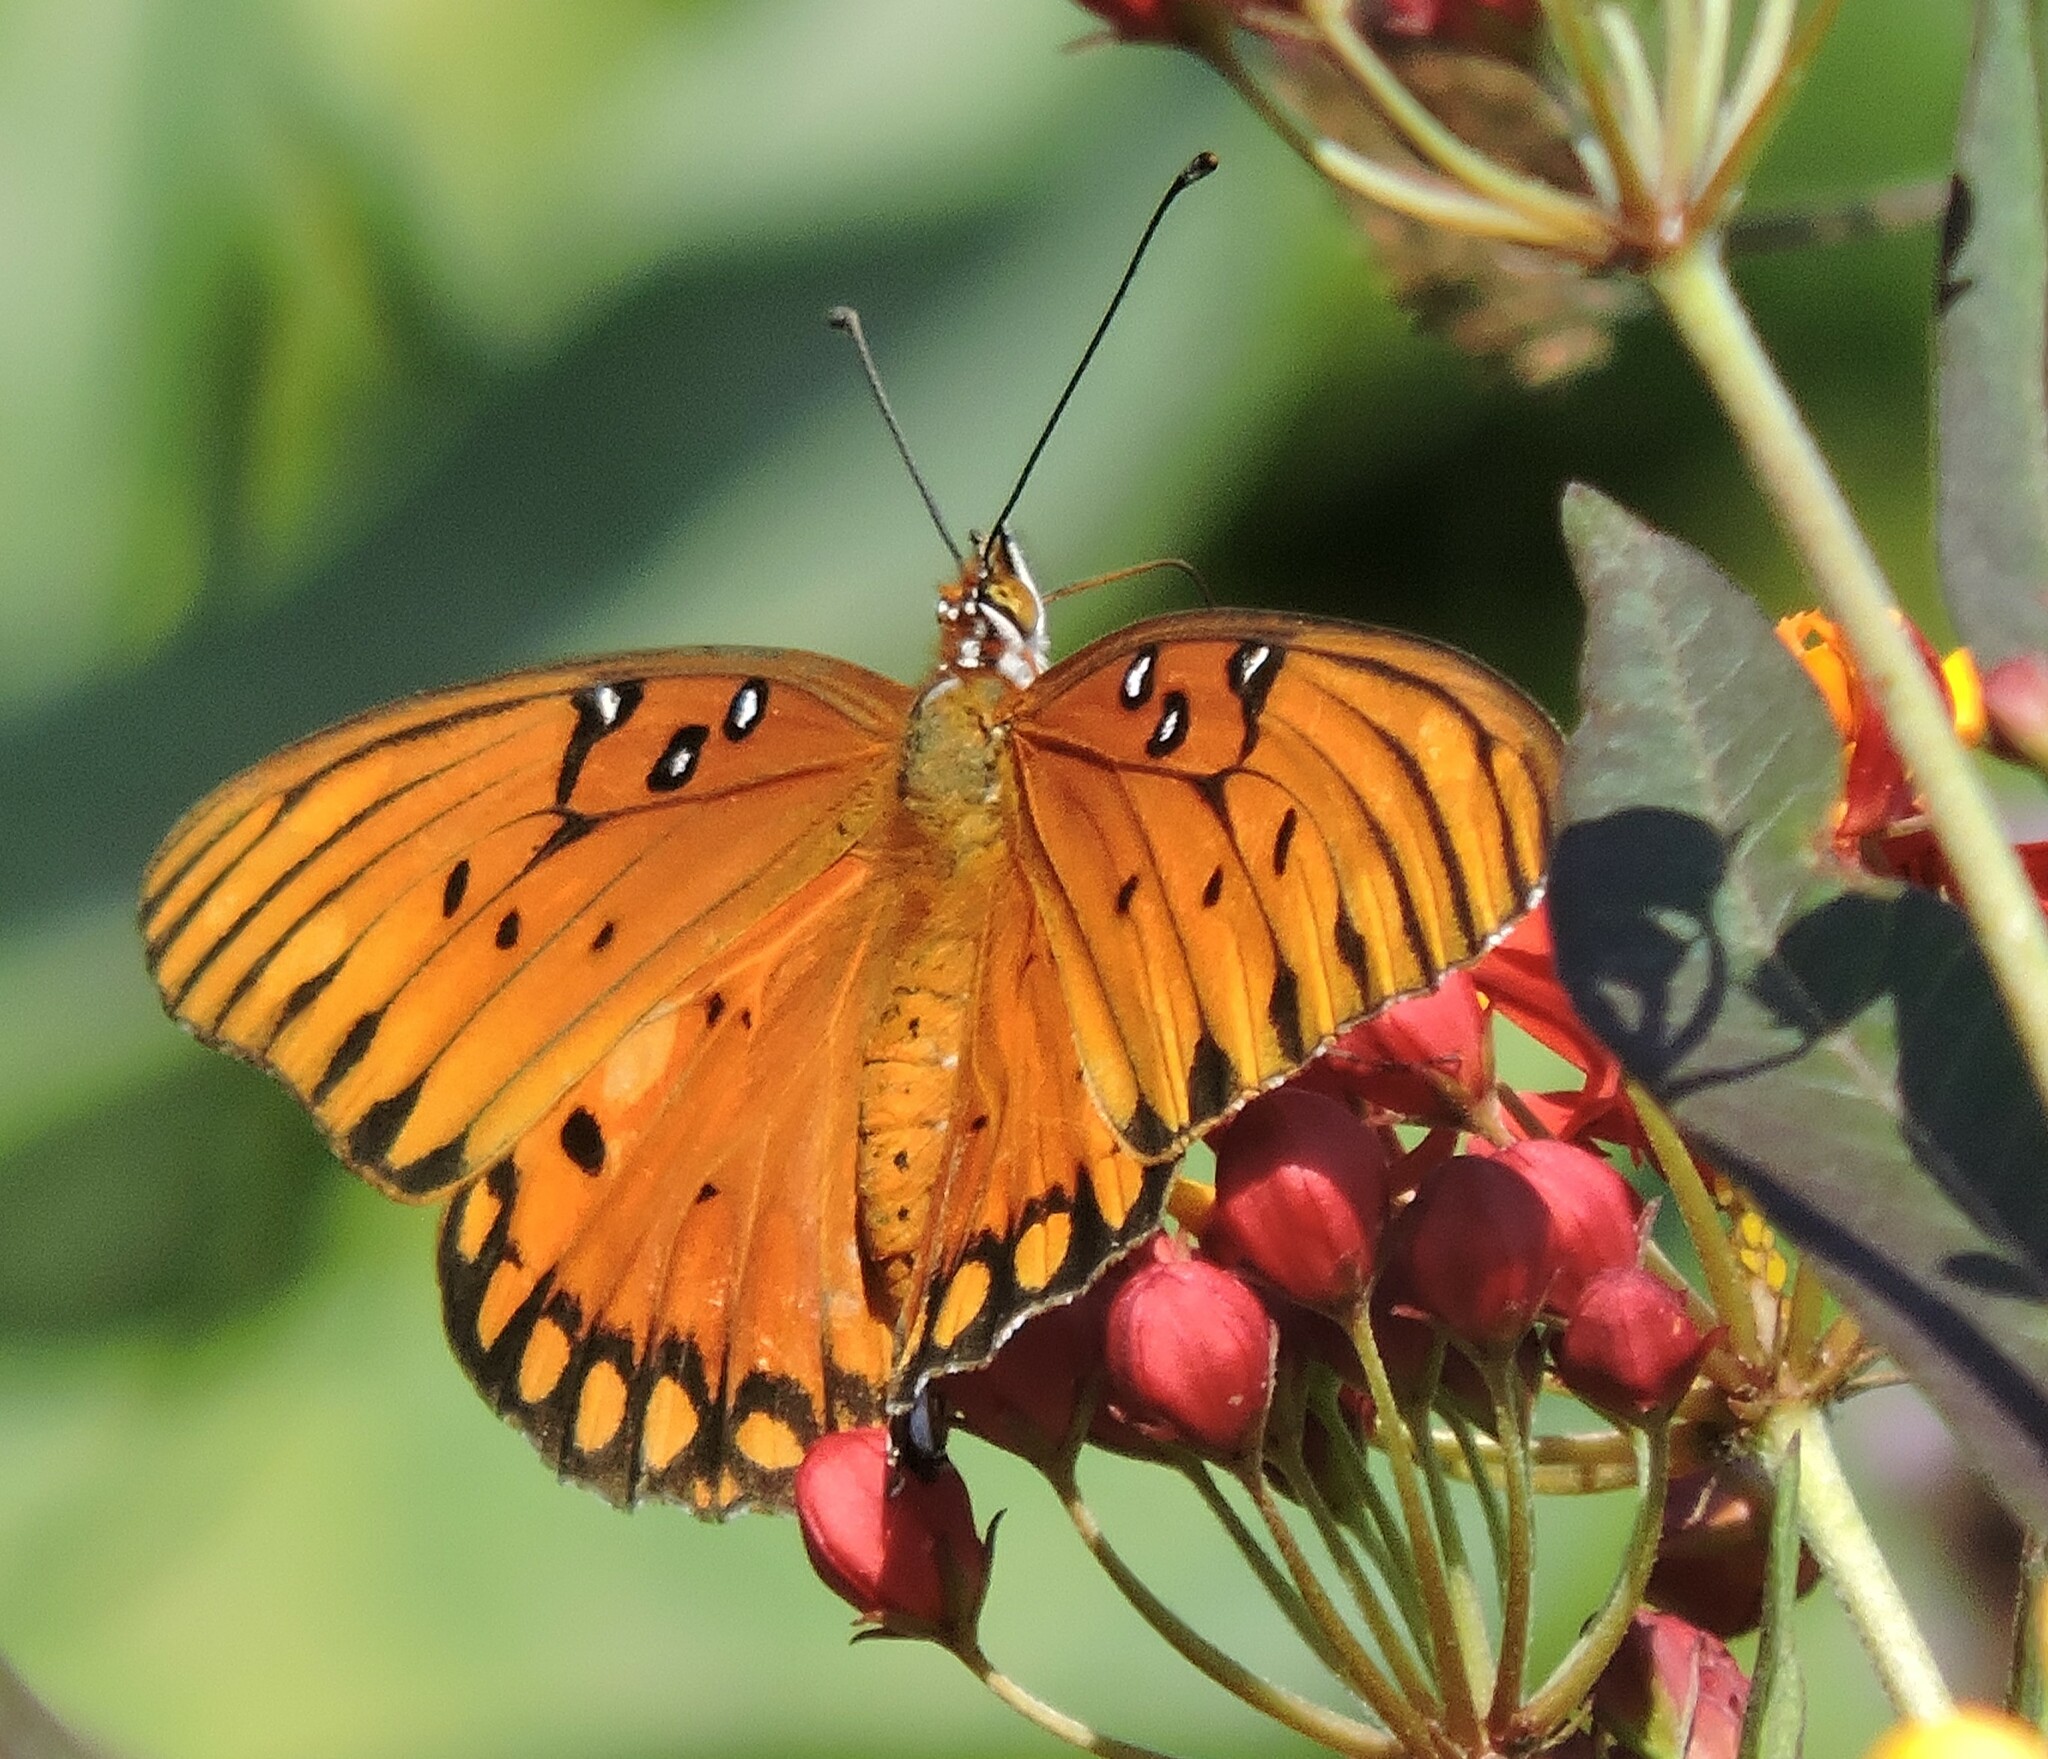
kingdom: Animalia
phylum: Arthropoda
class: Insecta
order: Lepidoptera
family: Nymphalidae
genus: Dione
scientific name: Dione vanillae
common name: Gulf fritillary
